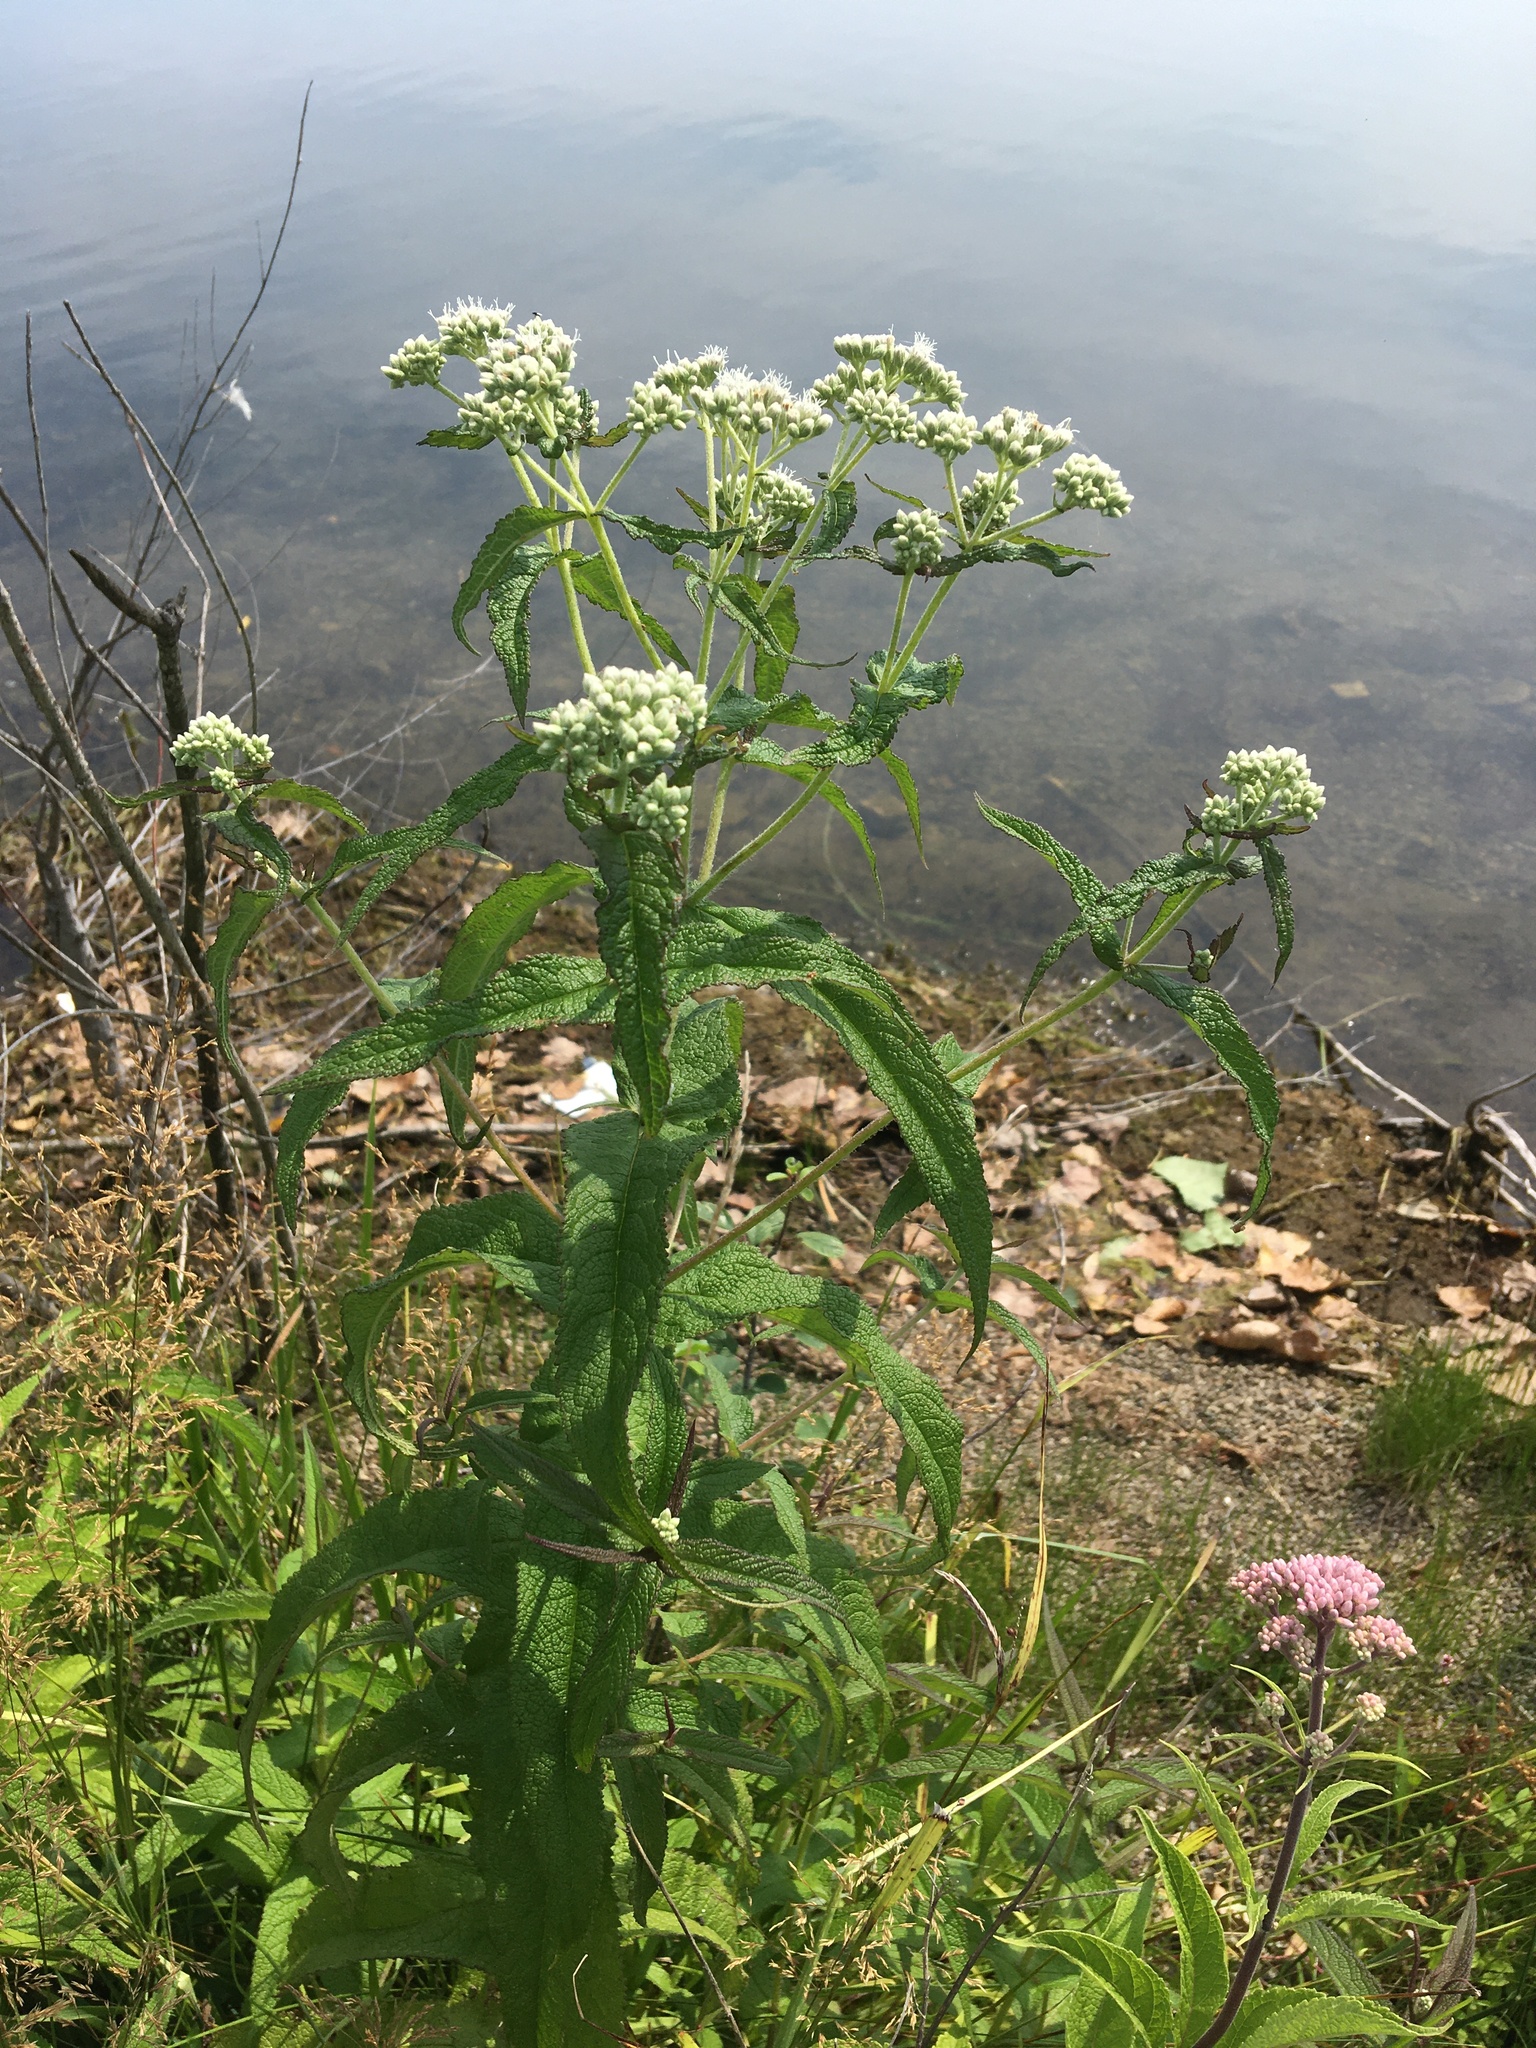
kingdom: Plantae
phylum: Tracheophyta
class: Magnoliopsida
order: Asterales
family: Asteraceae
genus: Eupatorium
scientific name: Eupatorium perfoliatum
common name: Boneset
